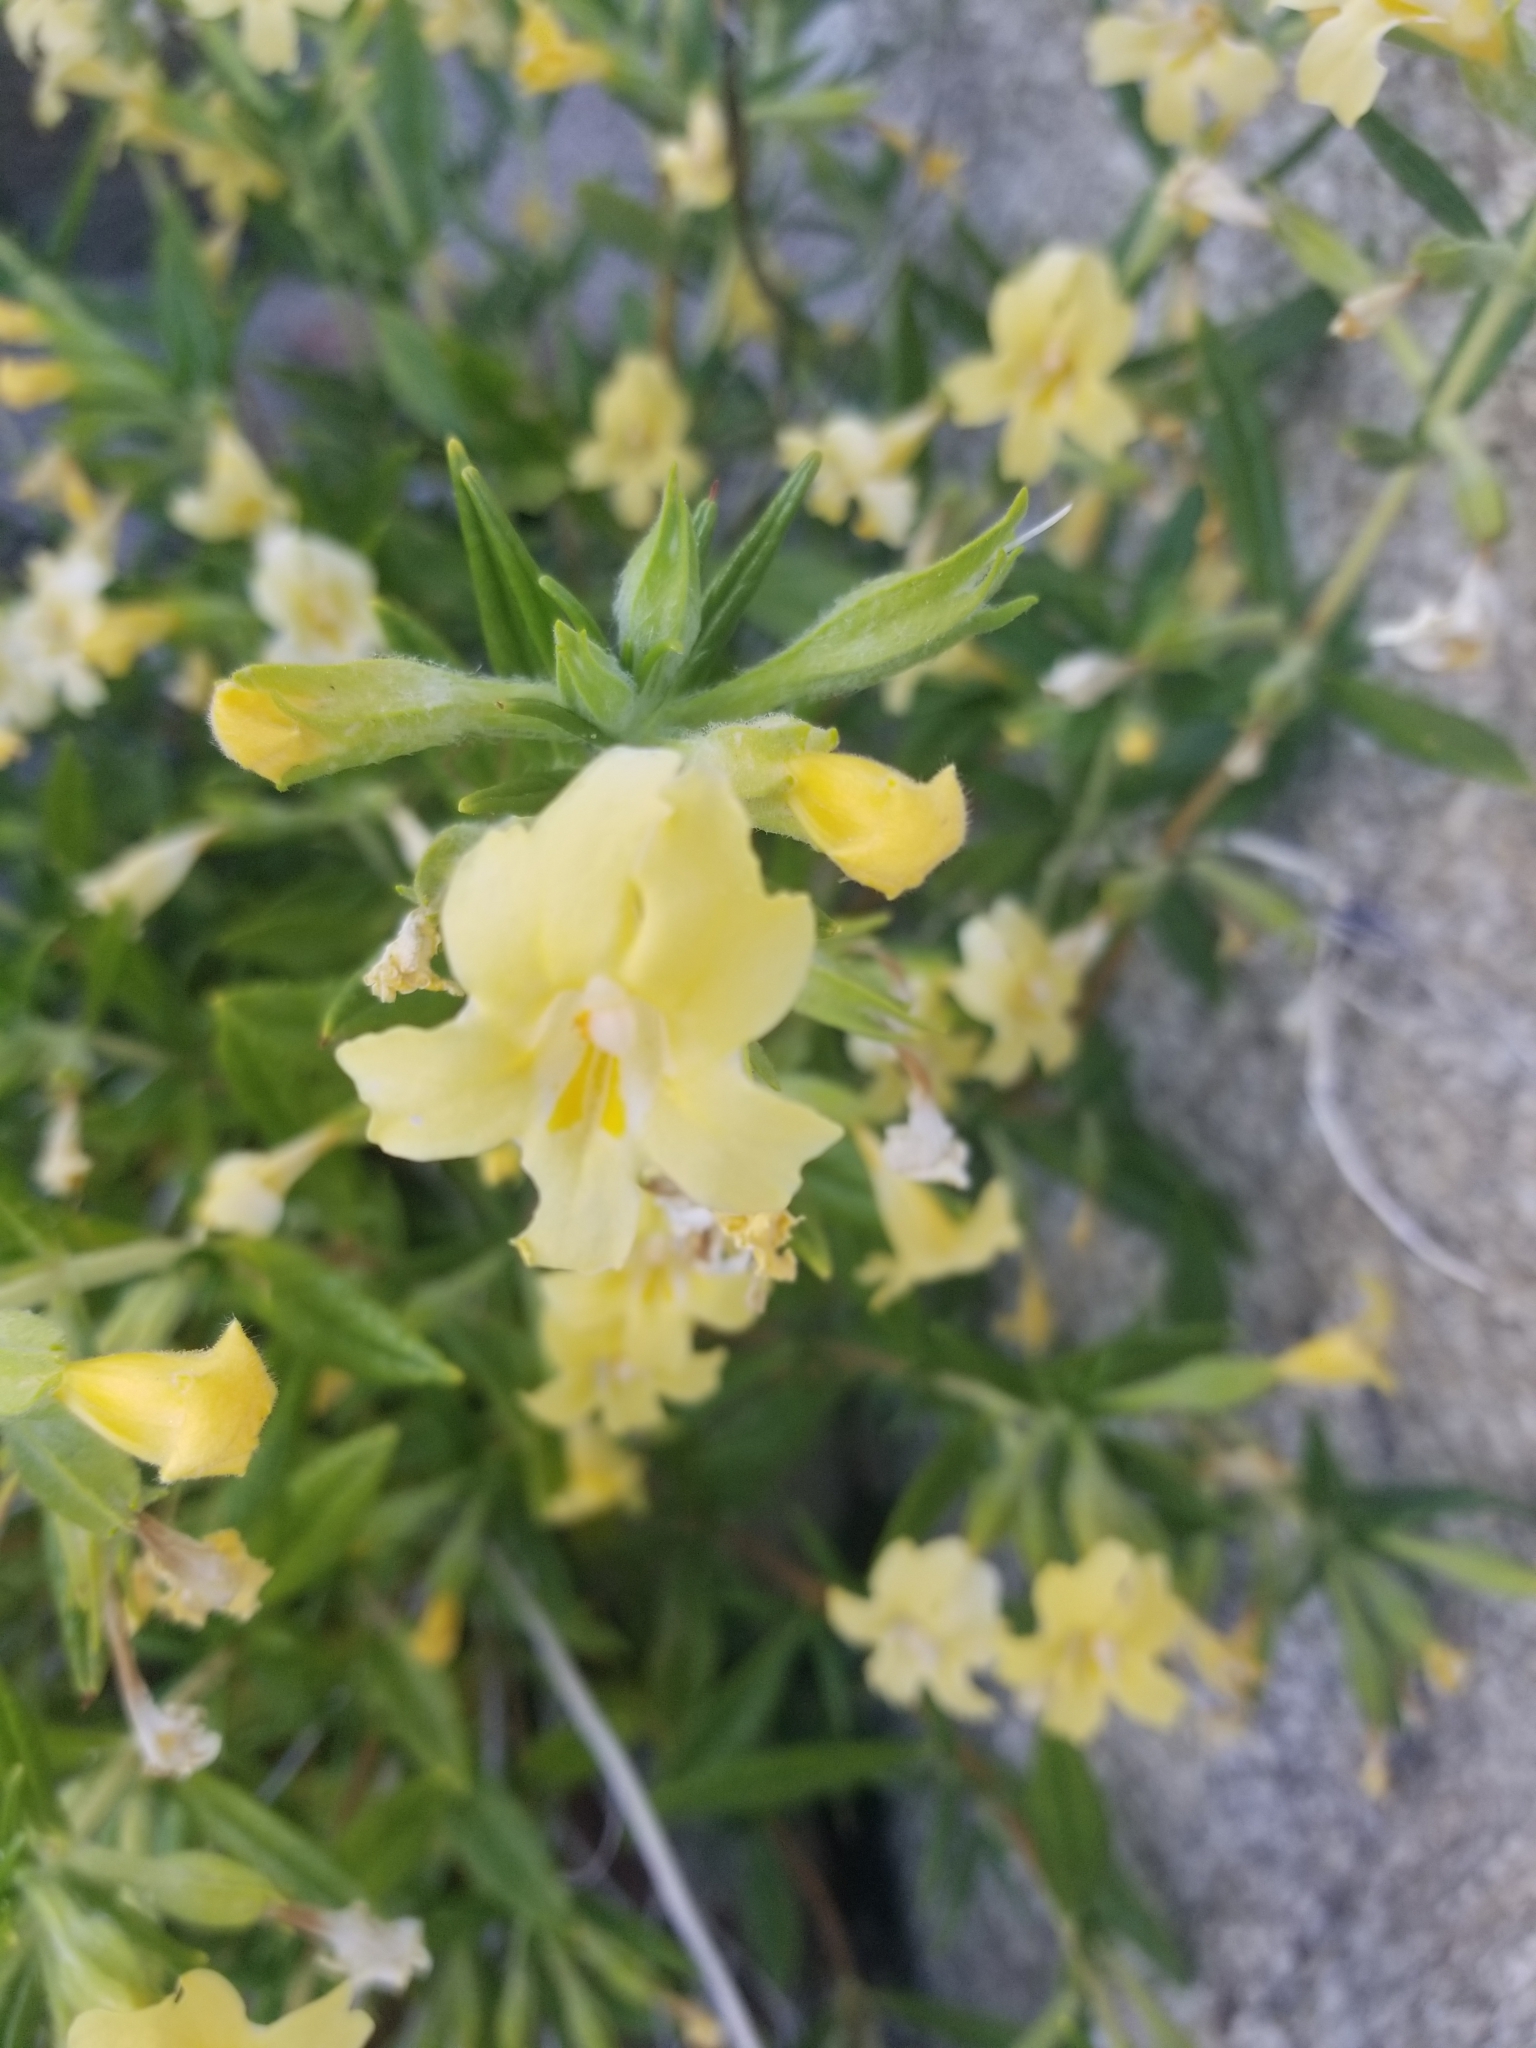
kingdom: Plantae
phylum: Tracheophyta
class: Magnoliopsida
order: Lamiales
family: Phrymaceae
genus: Diplacus
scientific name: Diplacus longiflorus
